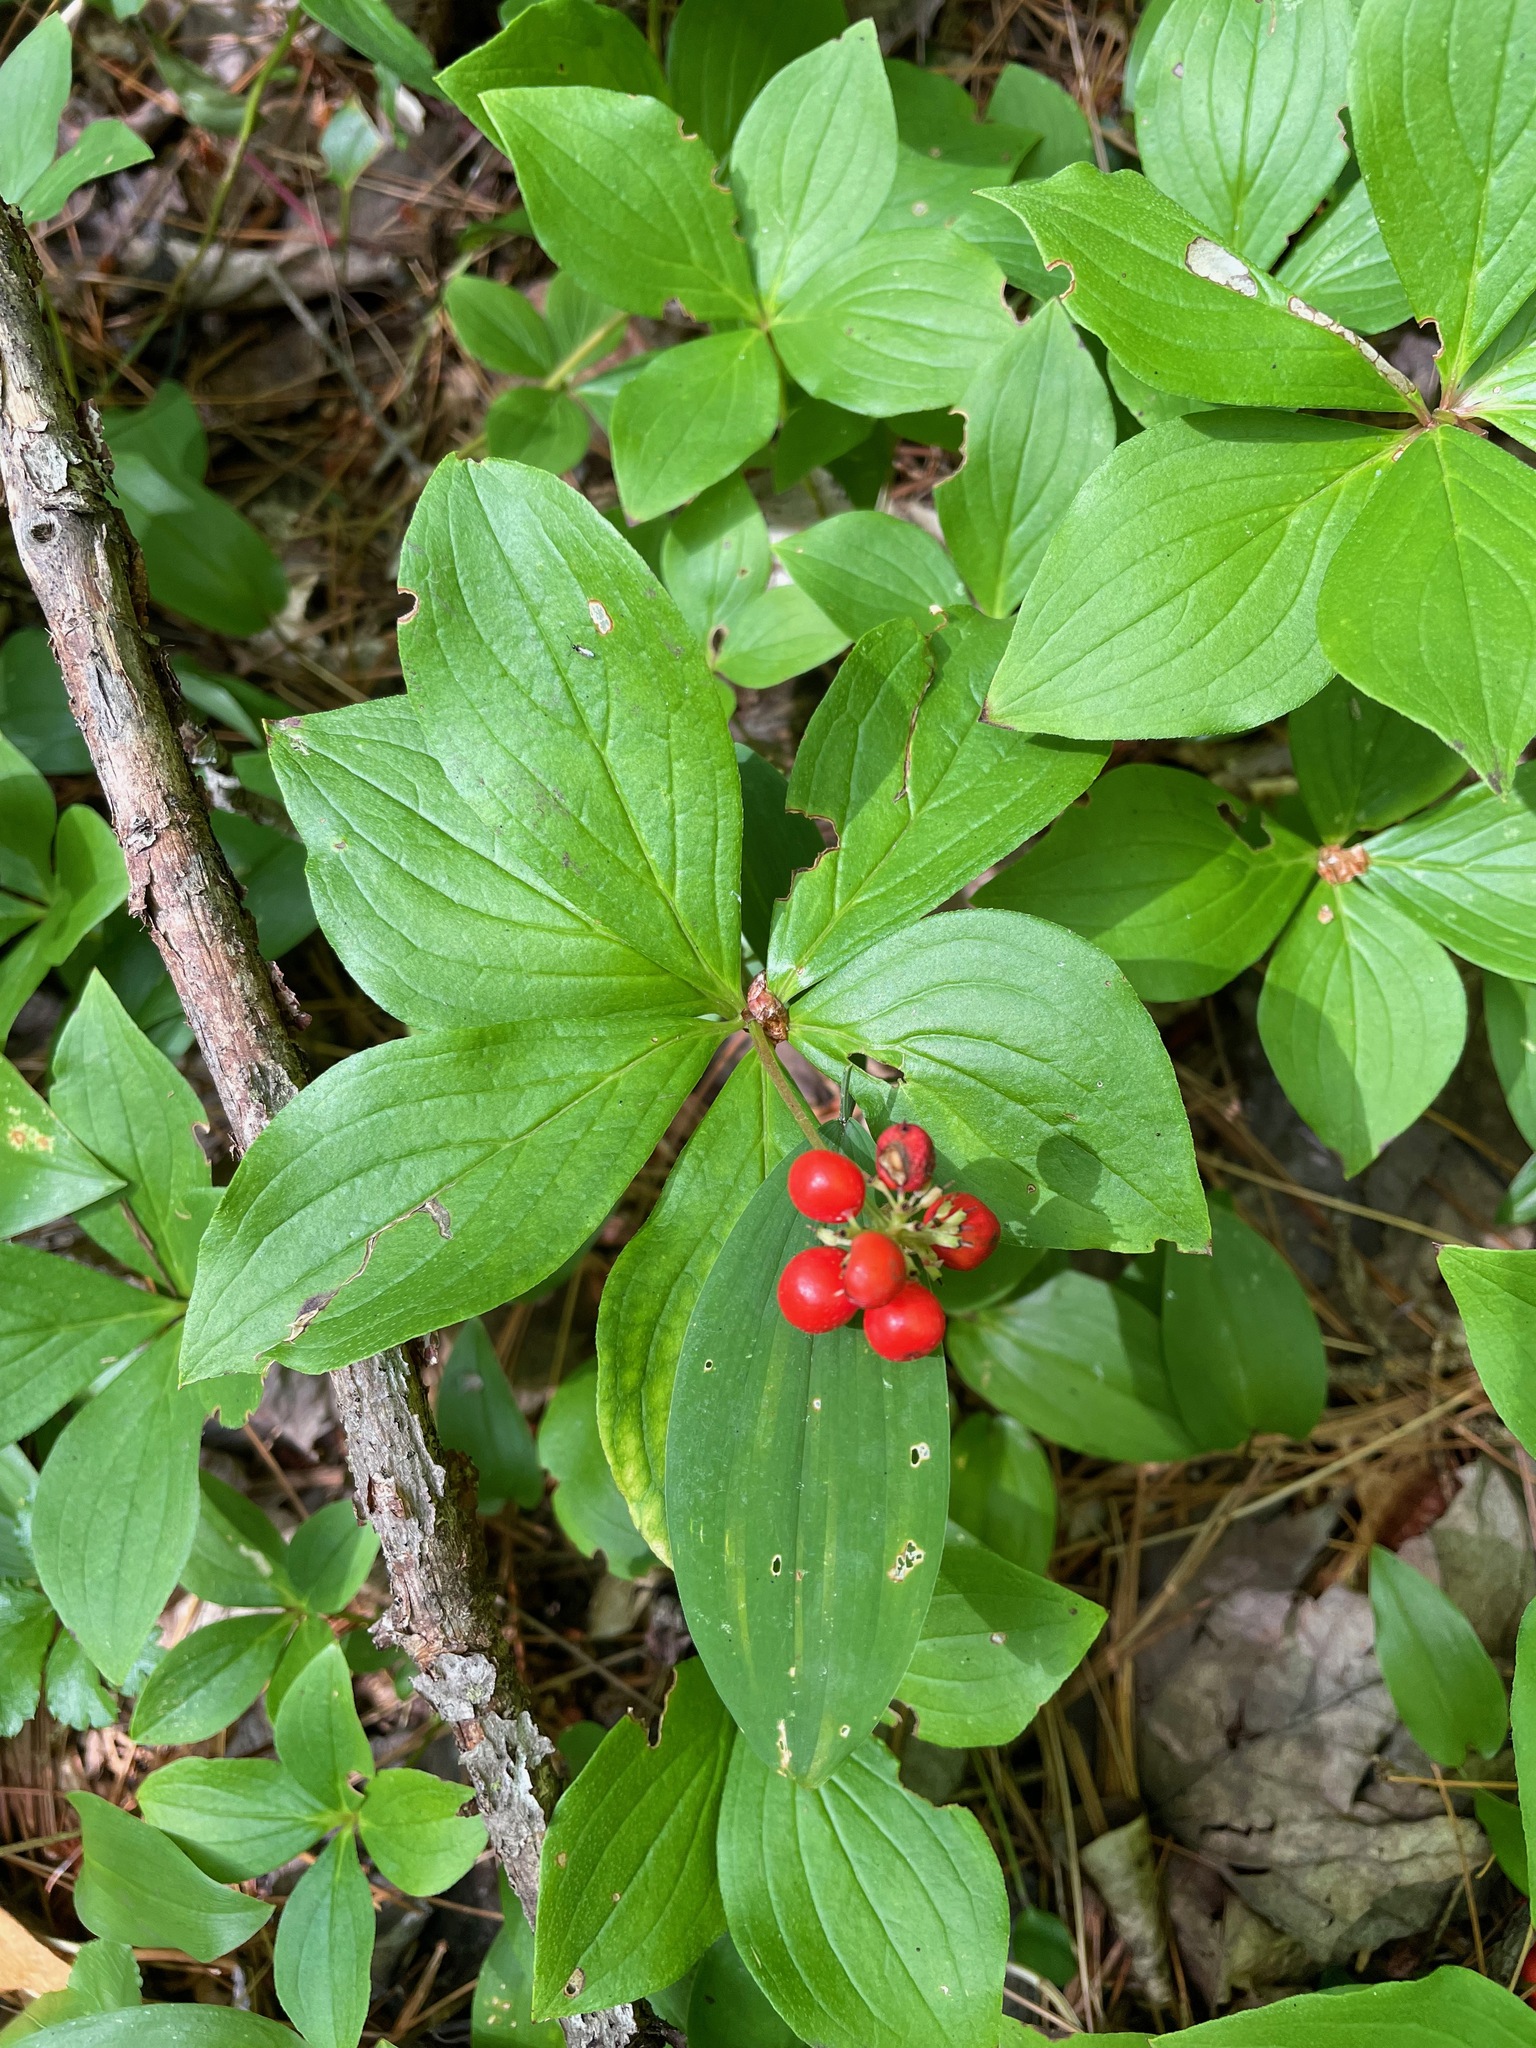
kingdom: Plantae
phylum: Tracheophyta
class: Magnoliopsida
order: Cornales
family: Cornaceae
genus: Cornus
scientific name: Cornus canadensis
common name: Creeping dogwood
